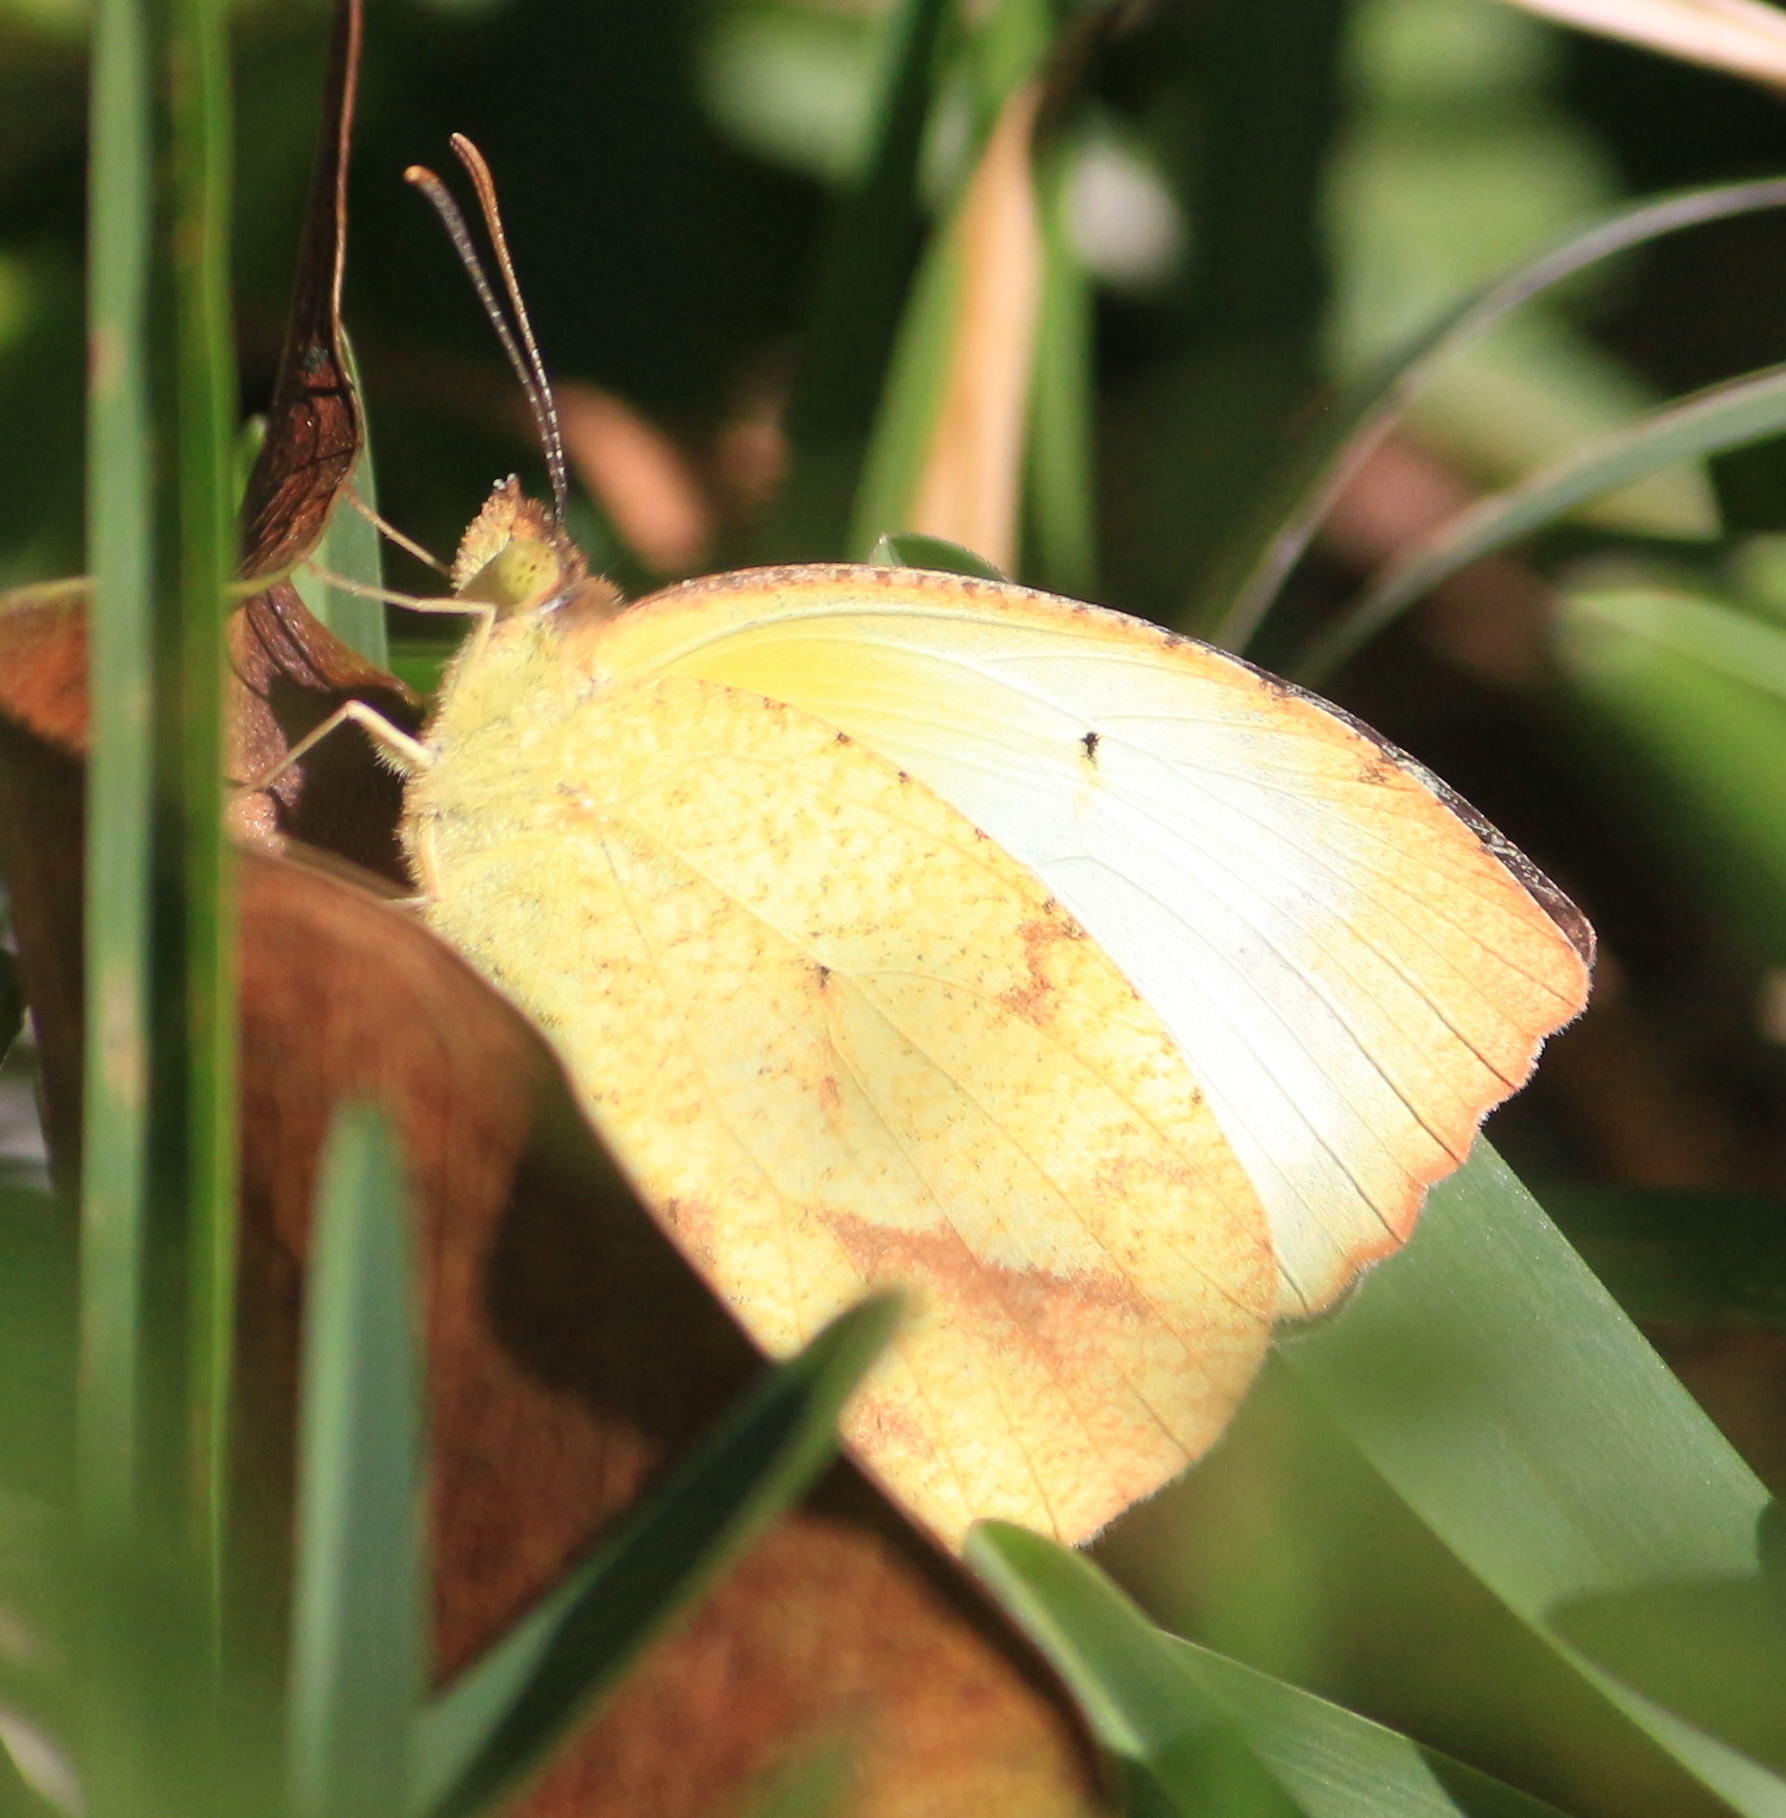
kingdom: Animalia
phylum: Arthropoda
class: Insecta
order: Lepidoptera
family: Pieridae
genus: Abaeis
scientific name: Abaeis mexicana
